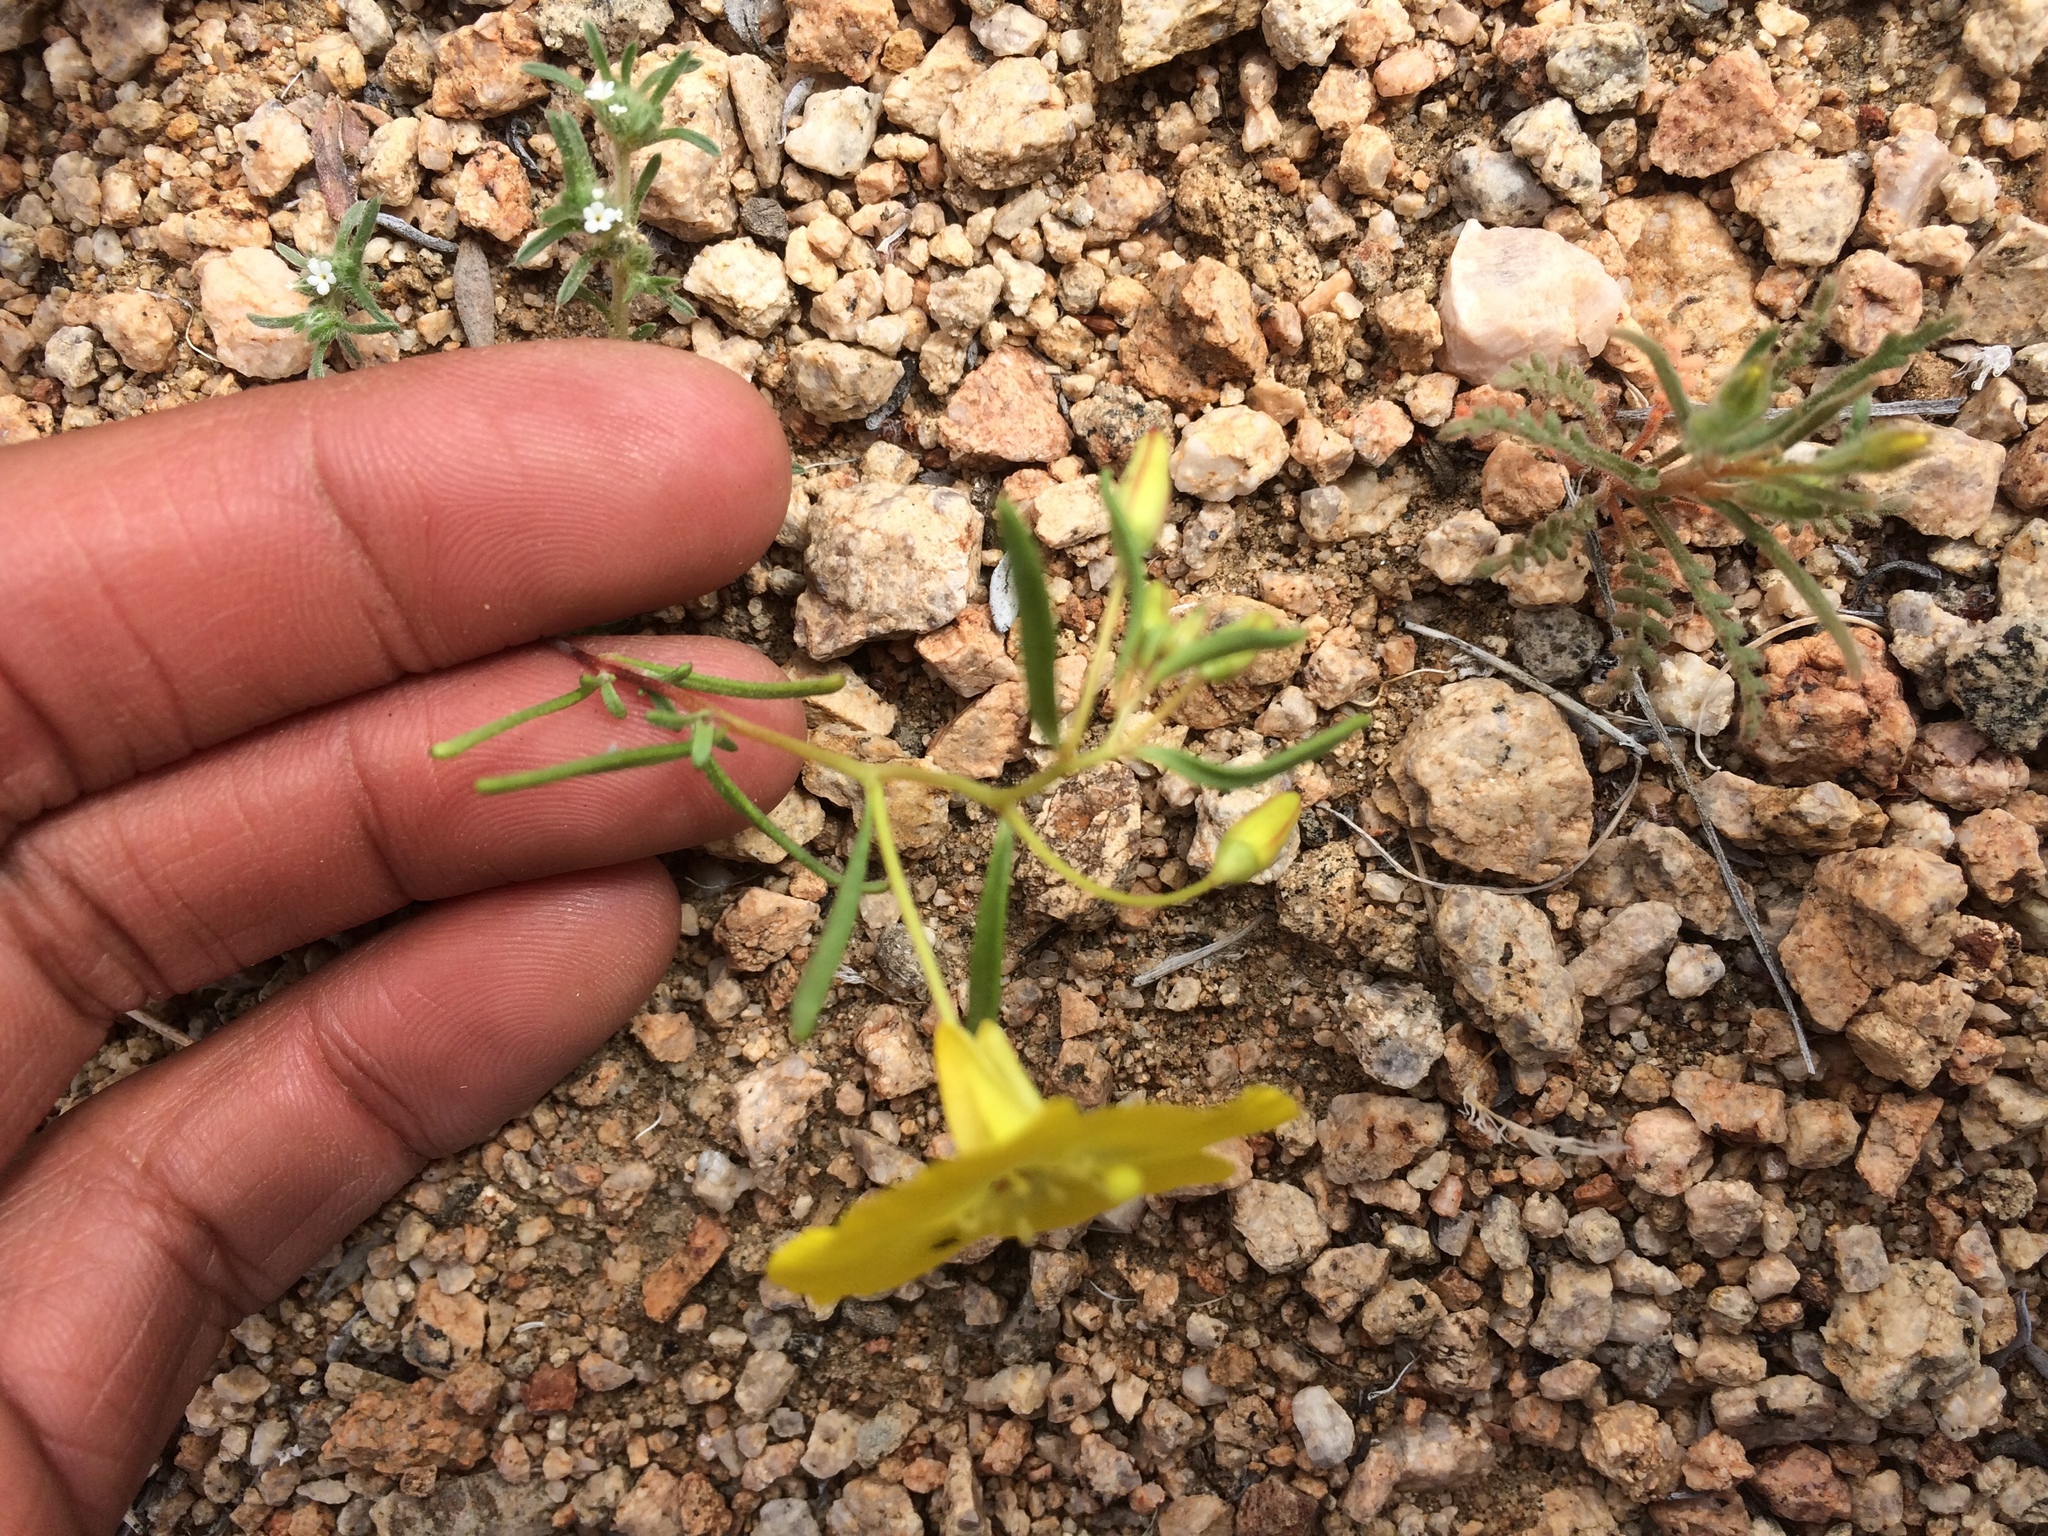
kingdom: Plantae
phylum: Tracheophyta
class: Magnoliopsida
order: Myrtales
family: Onagraceae
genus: Camissonia
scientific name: Camissonia campestris
